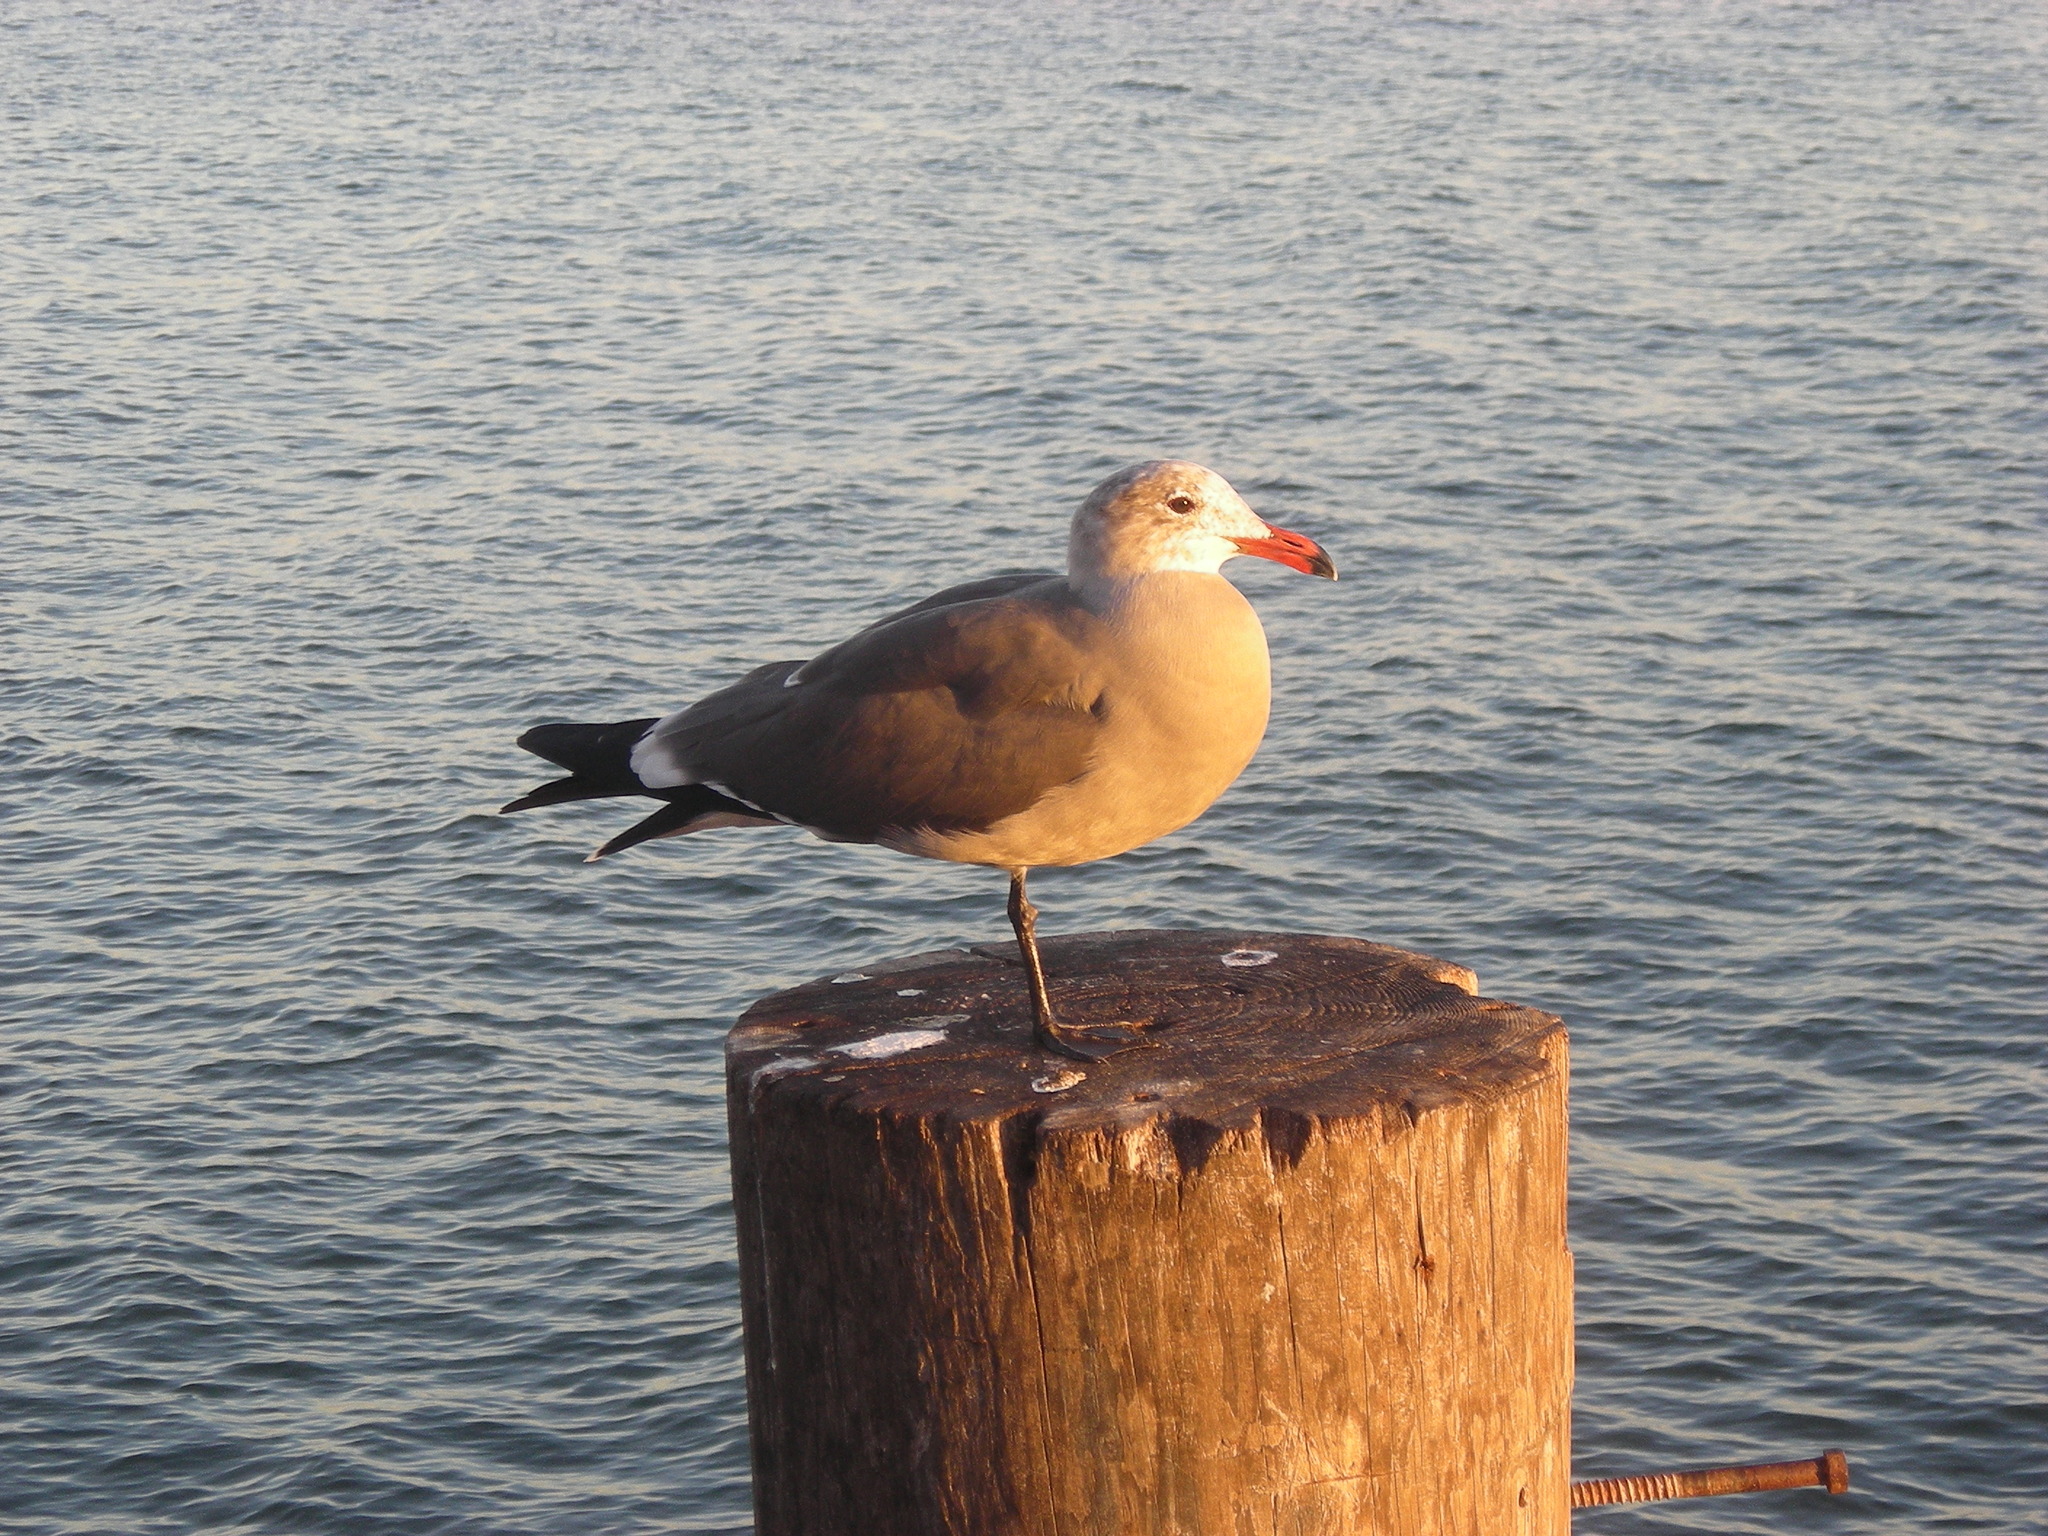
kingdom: Animalia
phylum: Chordata
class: Aves
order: Charadriiformes
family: Laridae
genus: Larus
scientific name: Larus heermanni
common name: Heermann's gull
